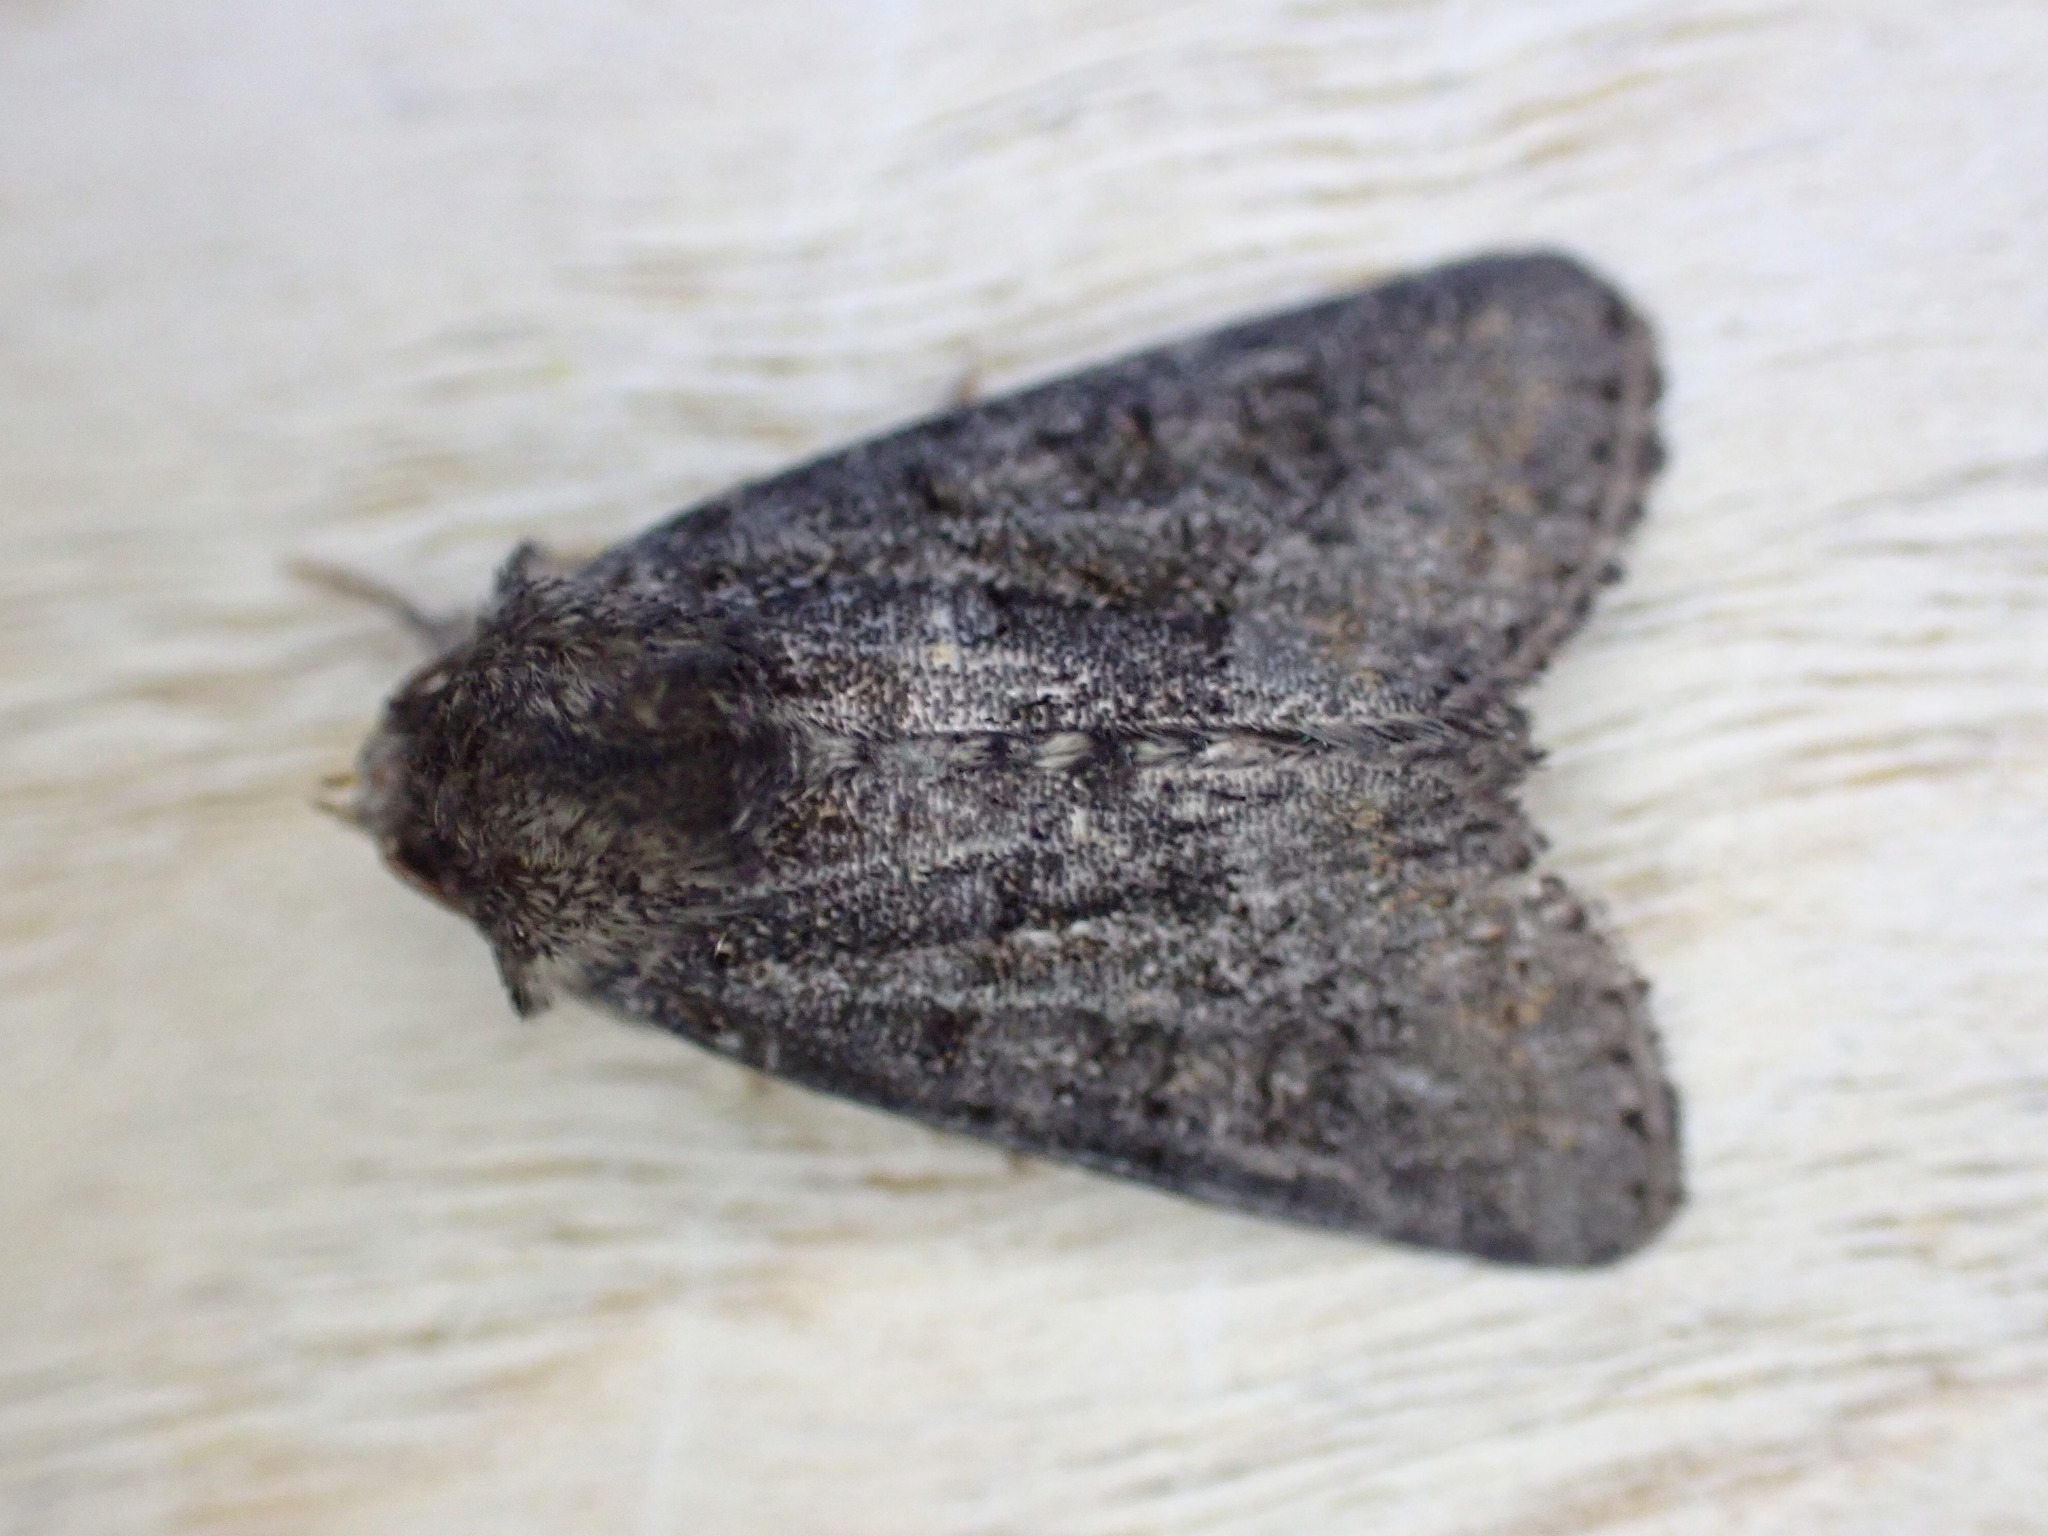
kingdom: Animalia
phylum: Arthropoda
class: Insecta
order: Lepidoptera
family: Noctuidae
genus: Oligia
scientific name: Oligia latruncula
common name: Tawny marbled minor
